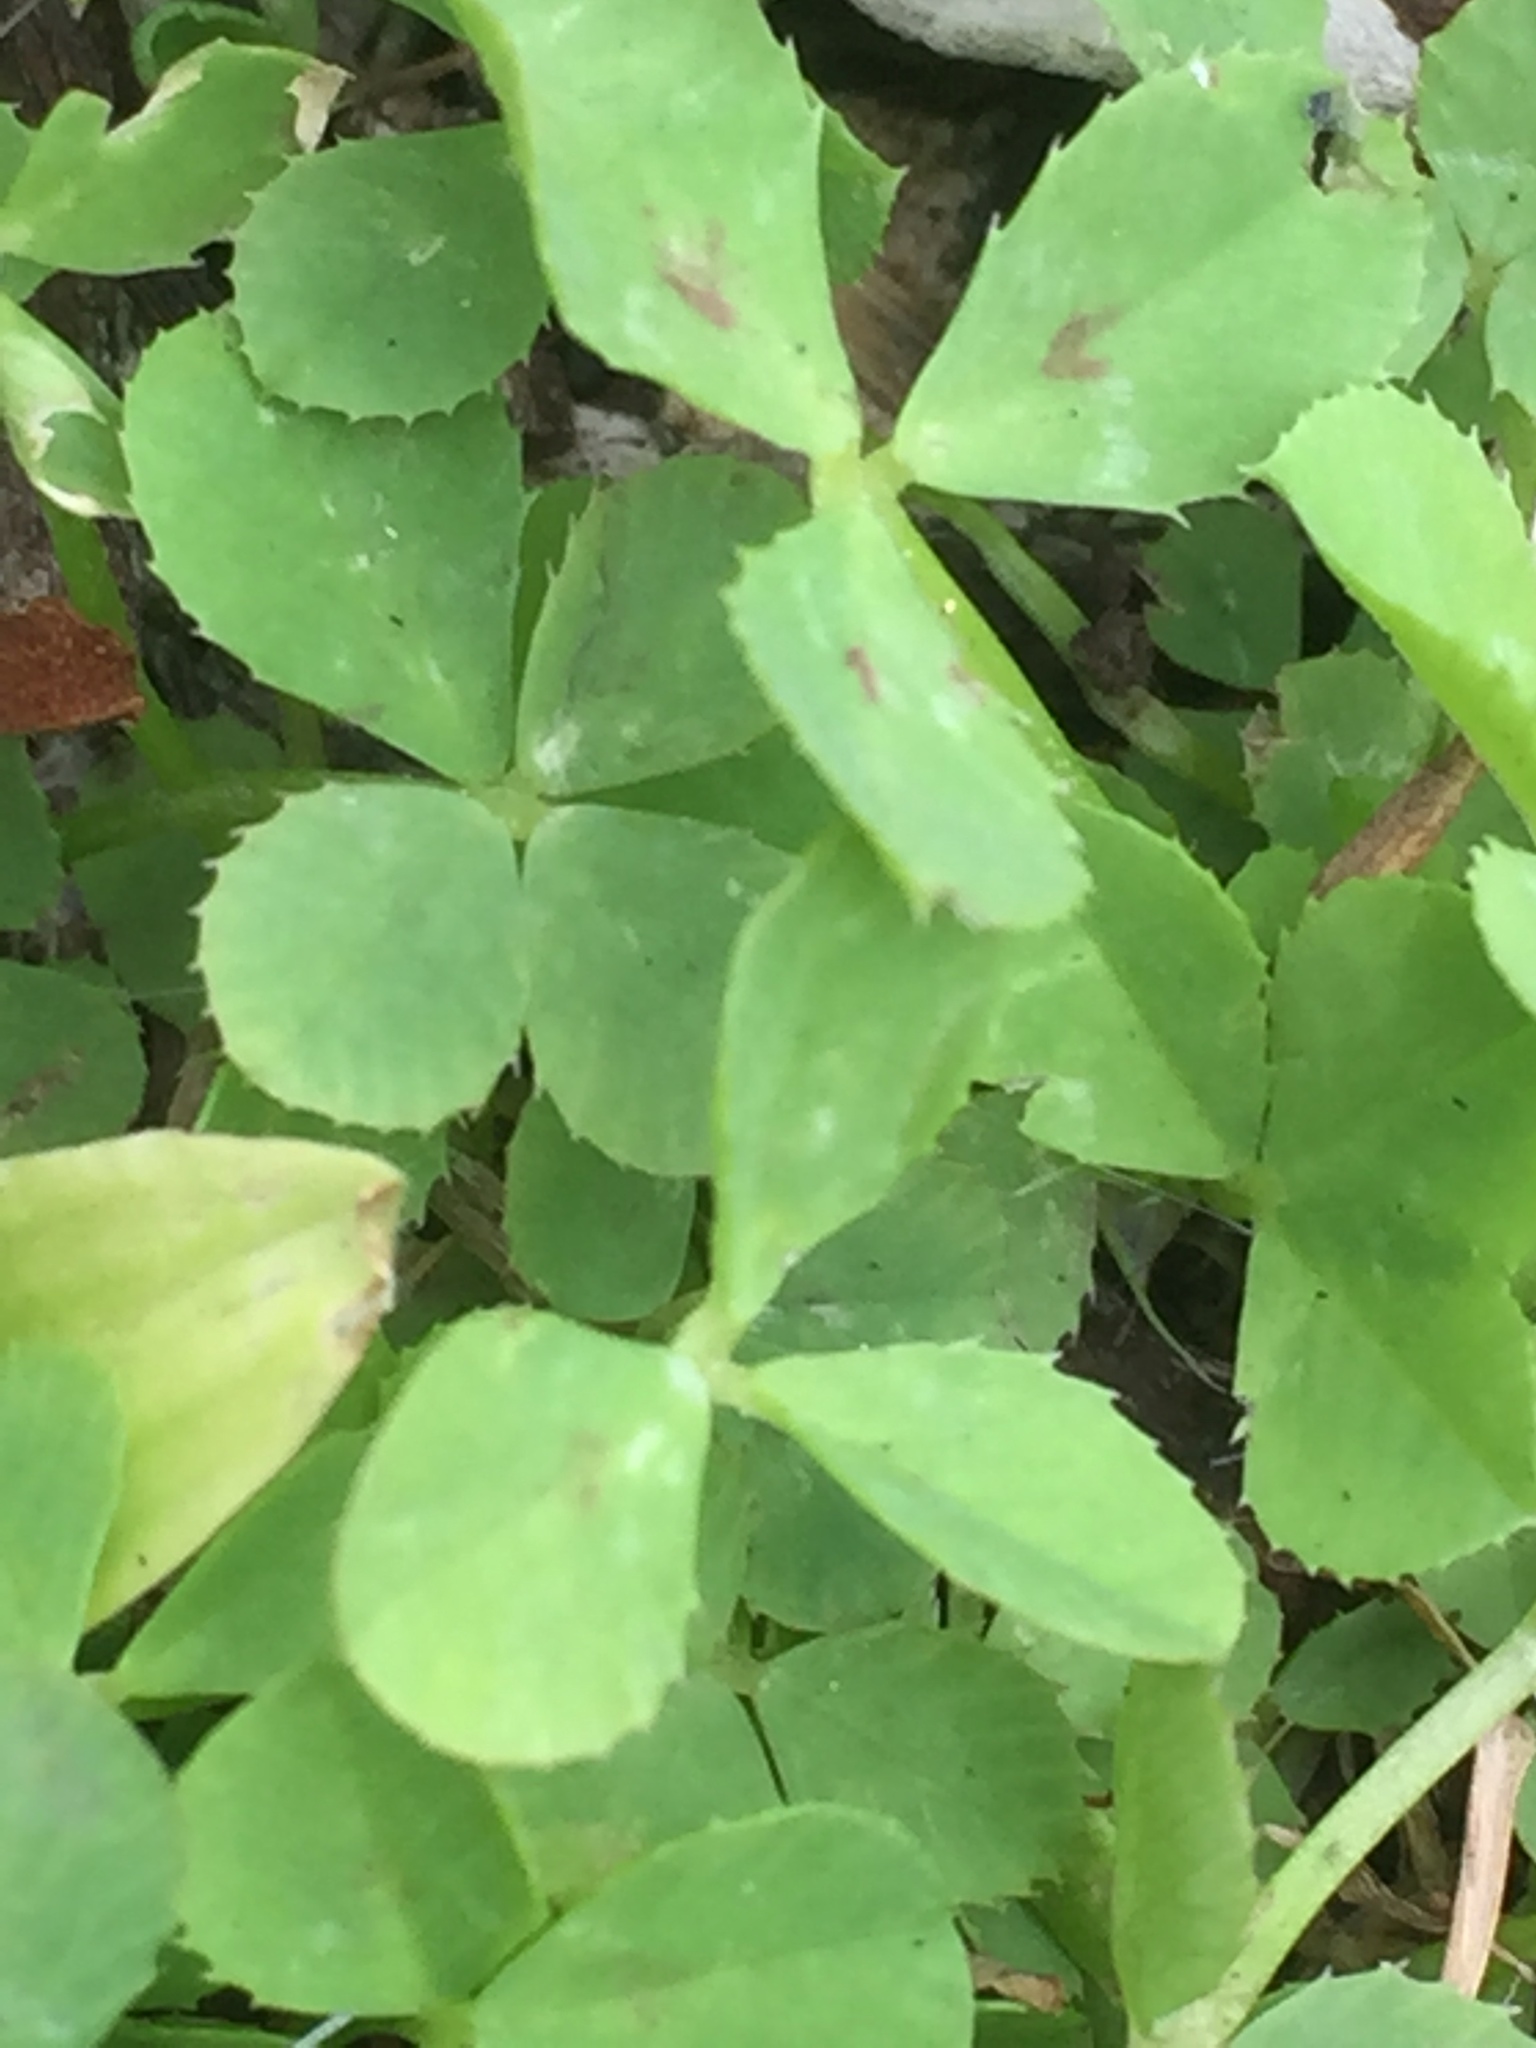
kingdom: Plantae
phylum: Tracheophyta
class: Magnoliopsida
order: Fabales
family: Fabaceae
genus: Medicago
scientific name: Medicago arabica
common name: Spotted medick
